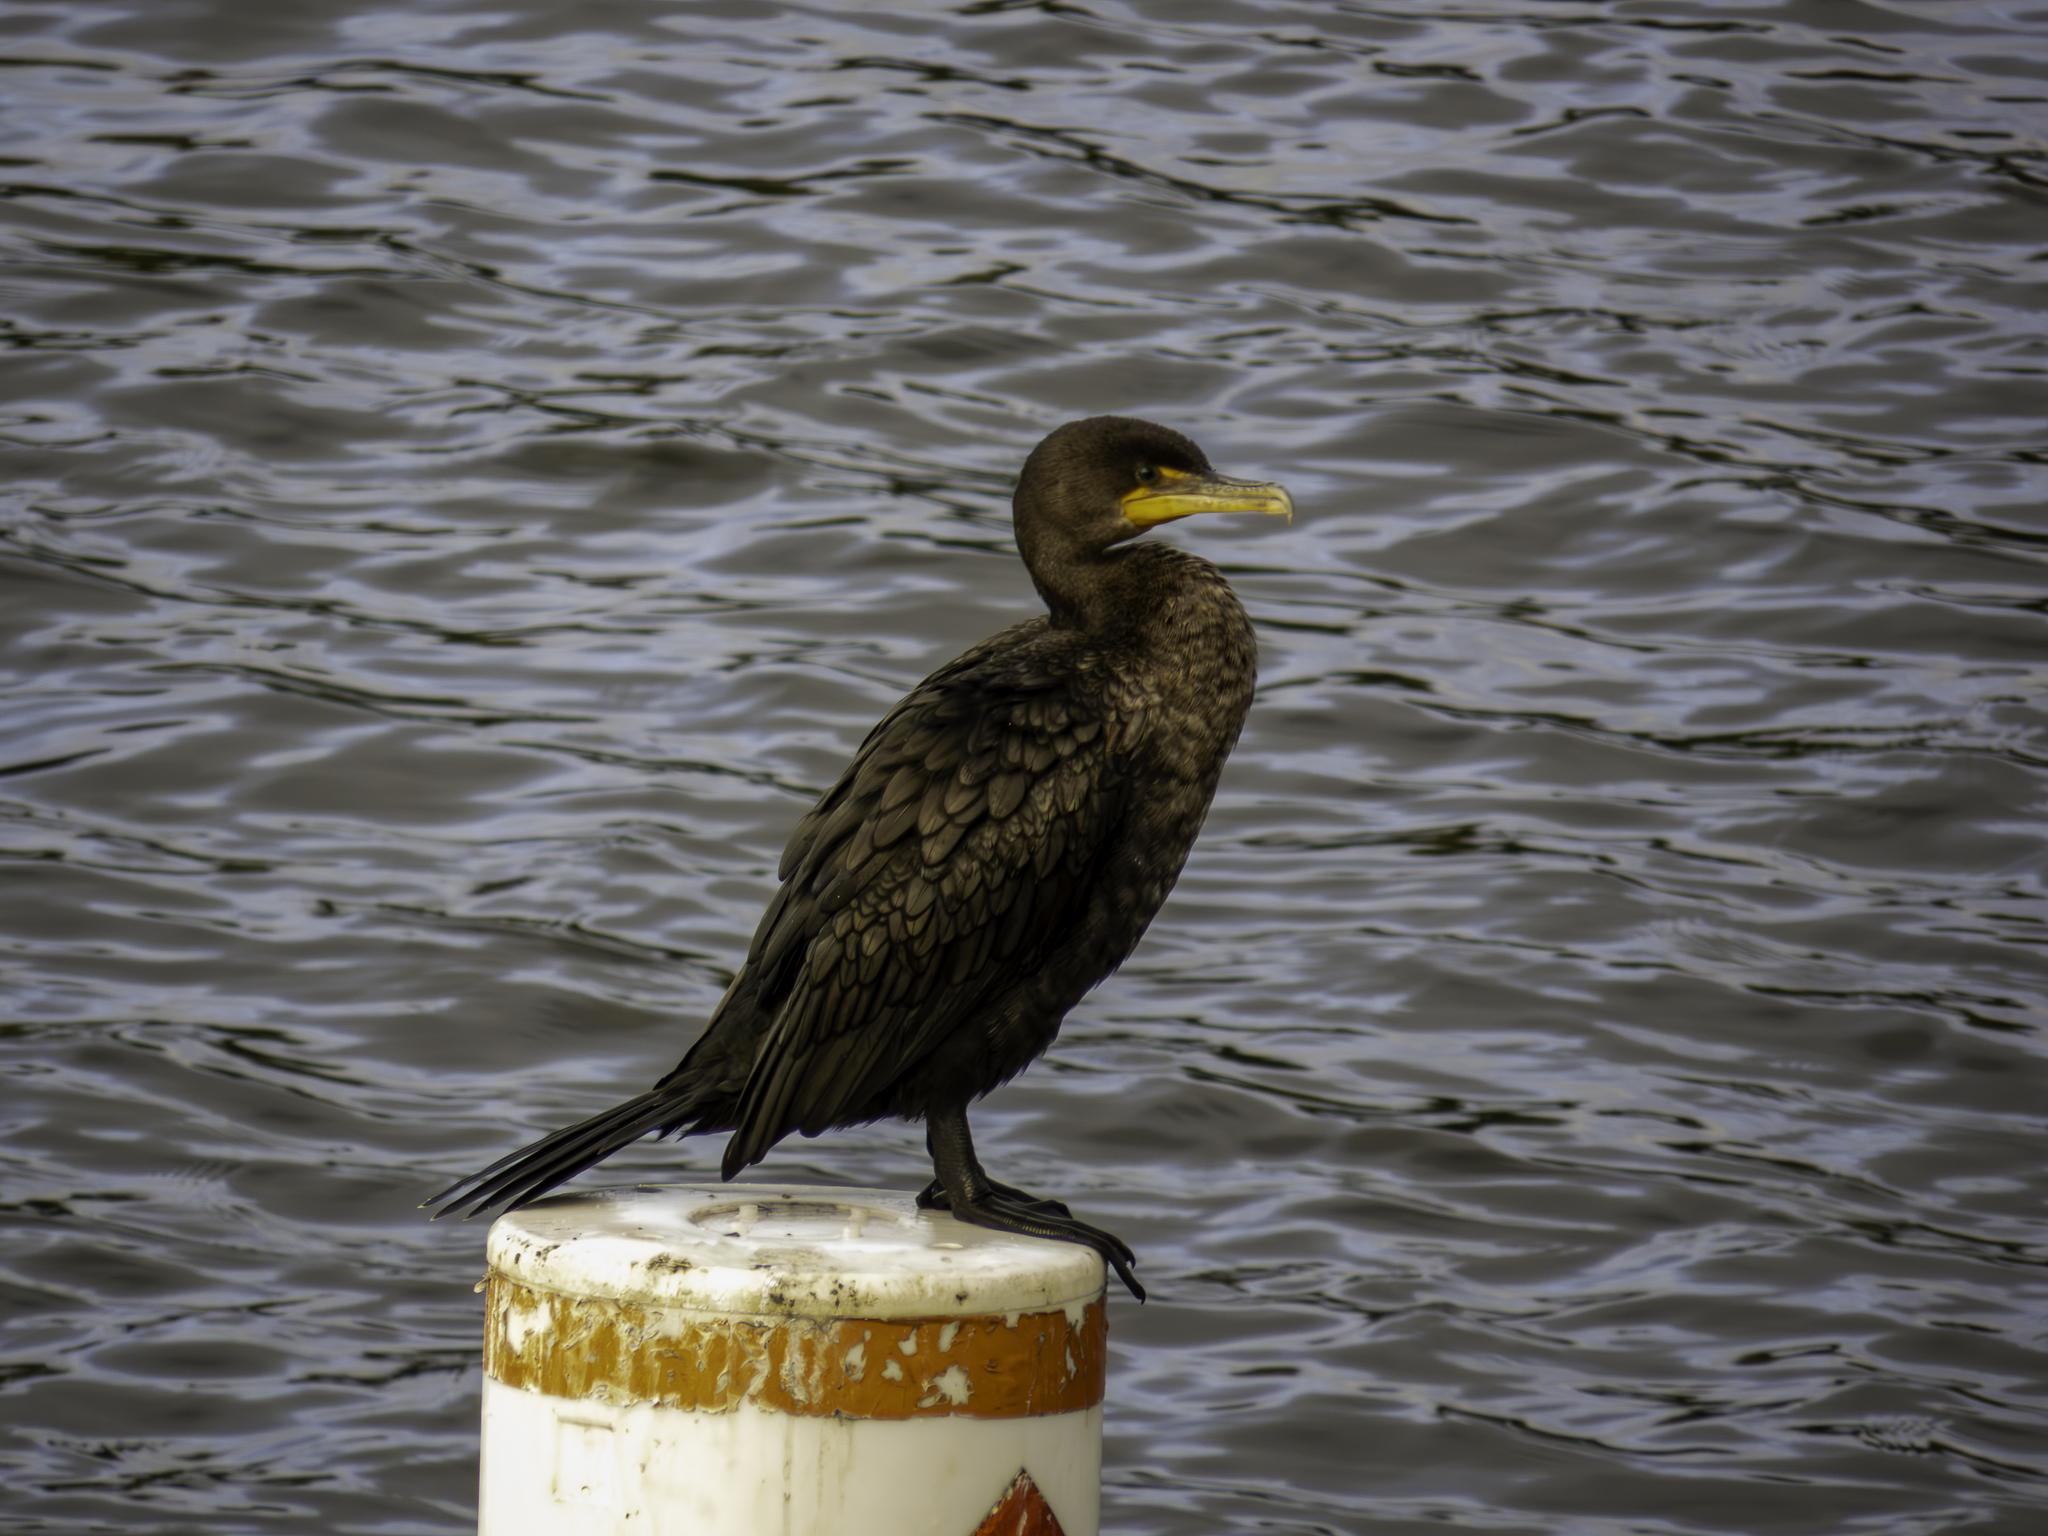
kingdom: Animalia
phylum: Chordata
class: Aves
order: Suliformes
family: Phalacrocoracidae
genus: Phalacrocorax
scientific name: Phalacrocorax auritus
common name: Double-crested cormorant
